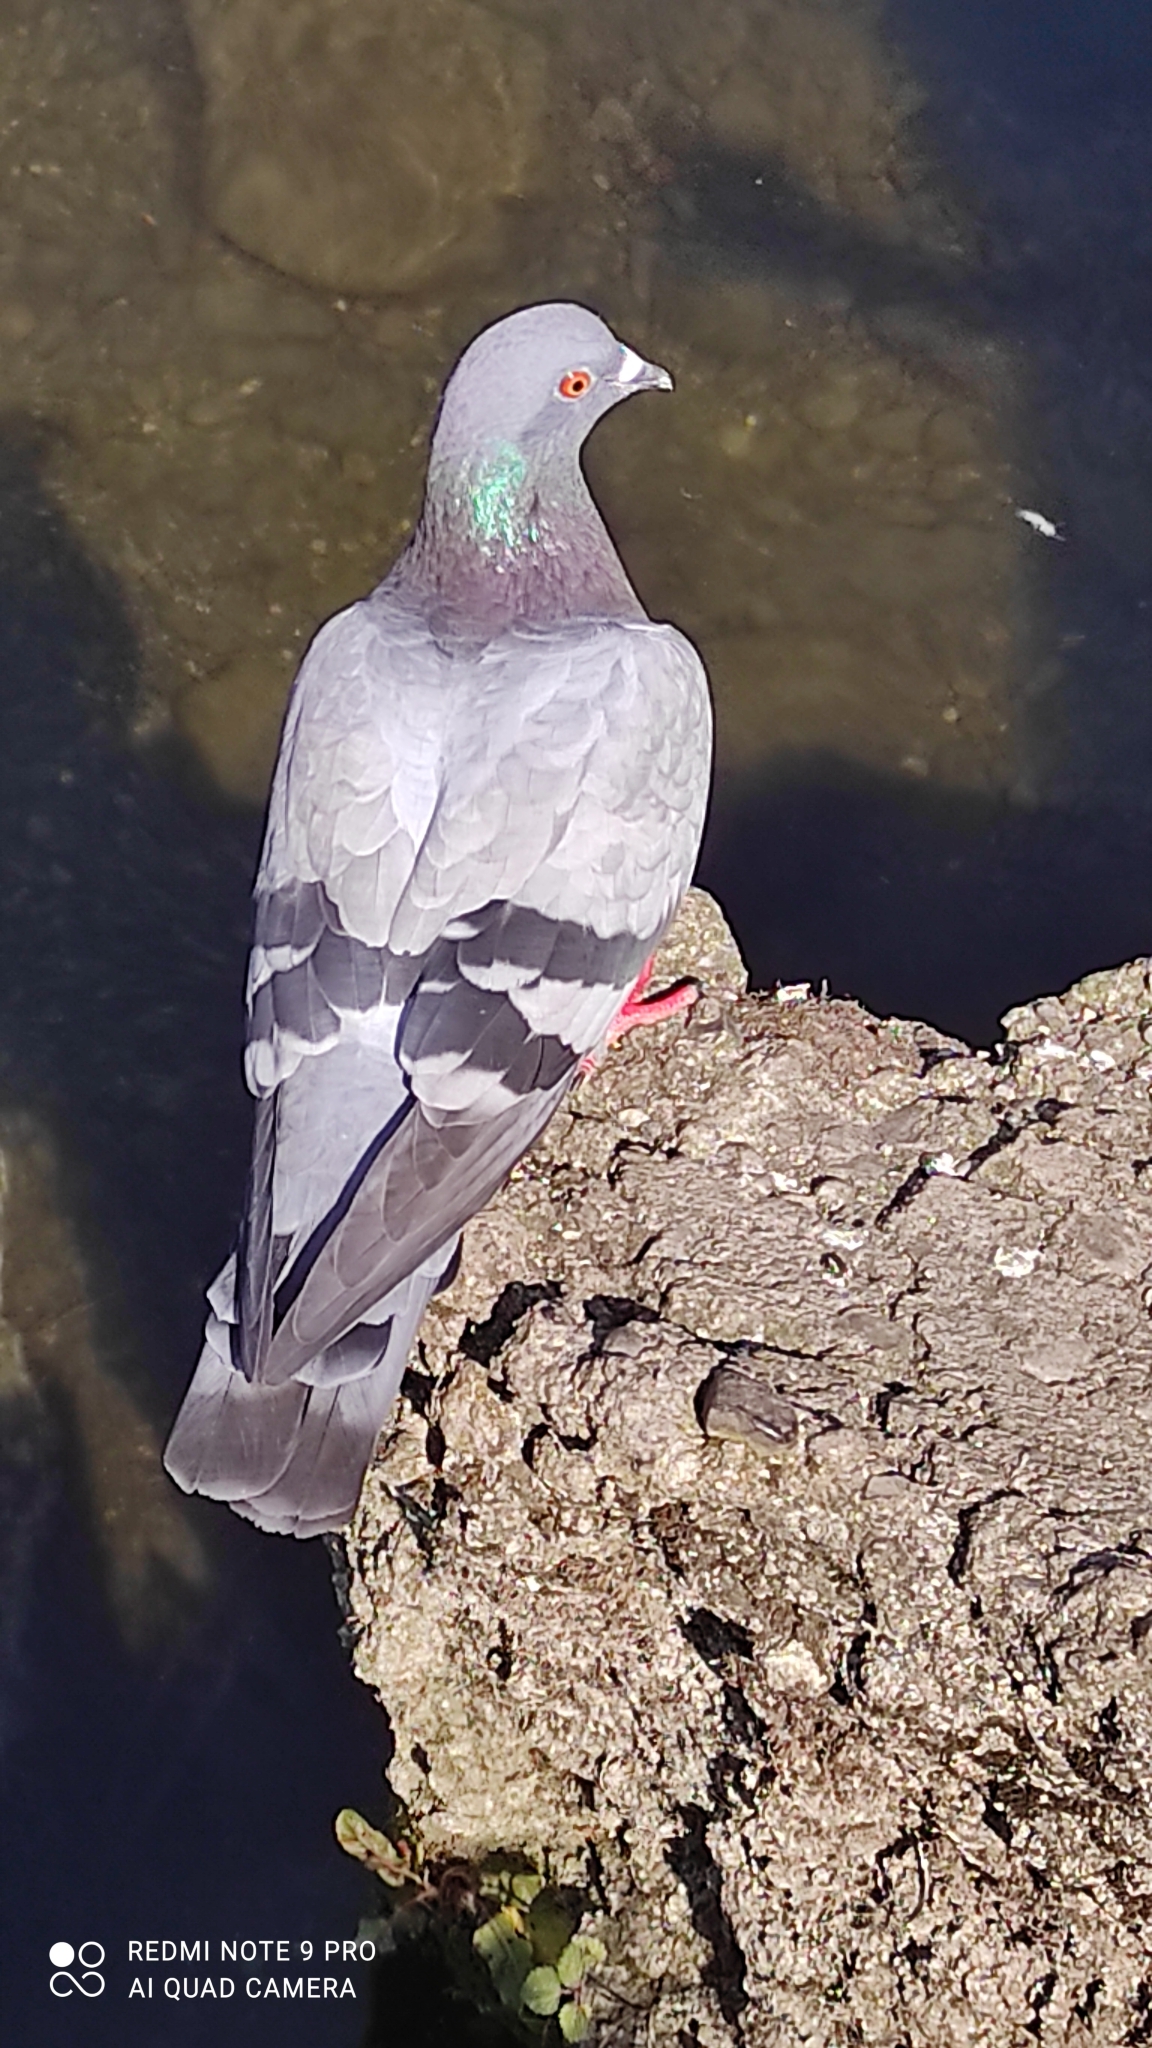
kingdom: Animalia
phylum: Chordata
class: Aves
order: Columbiformes
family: Columbidae
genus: Columba
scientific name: Columba livia
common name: Rock pigeon
